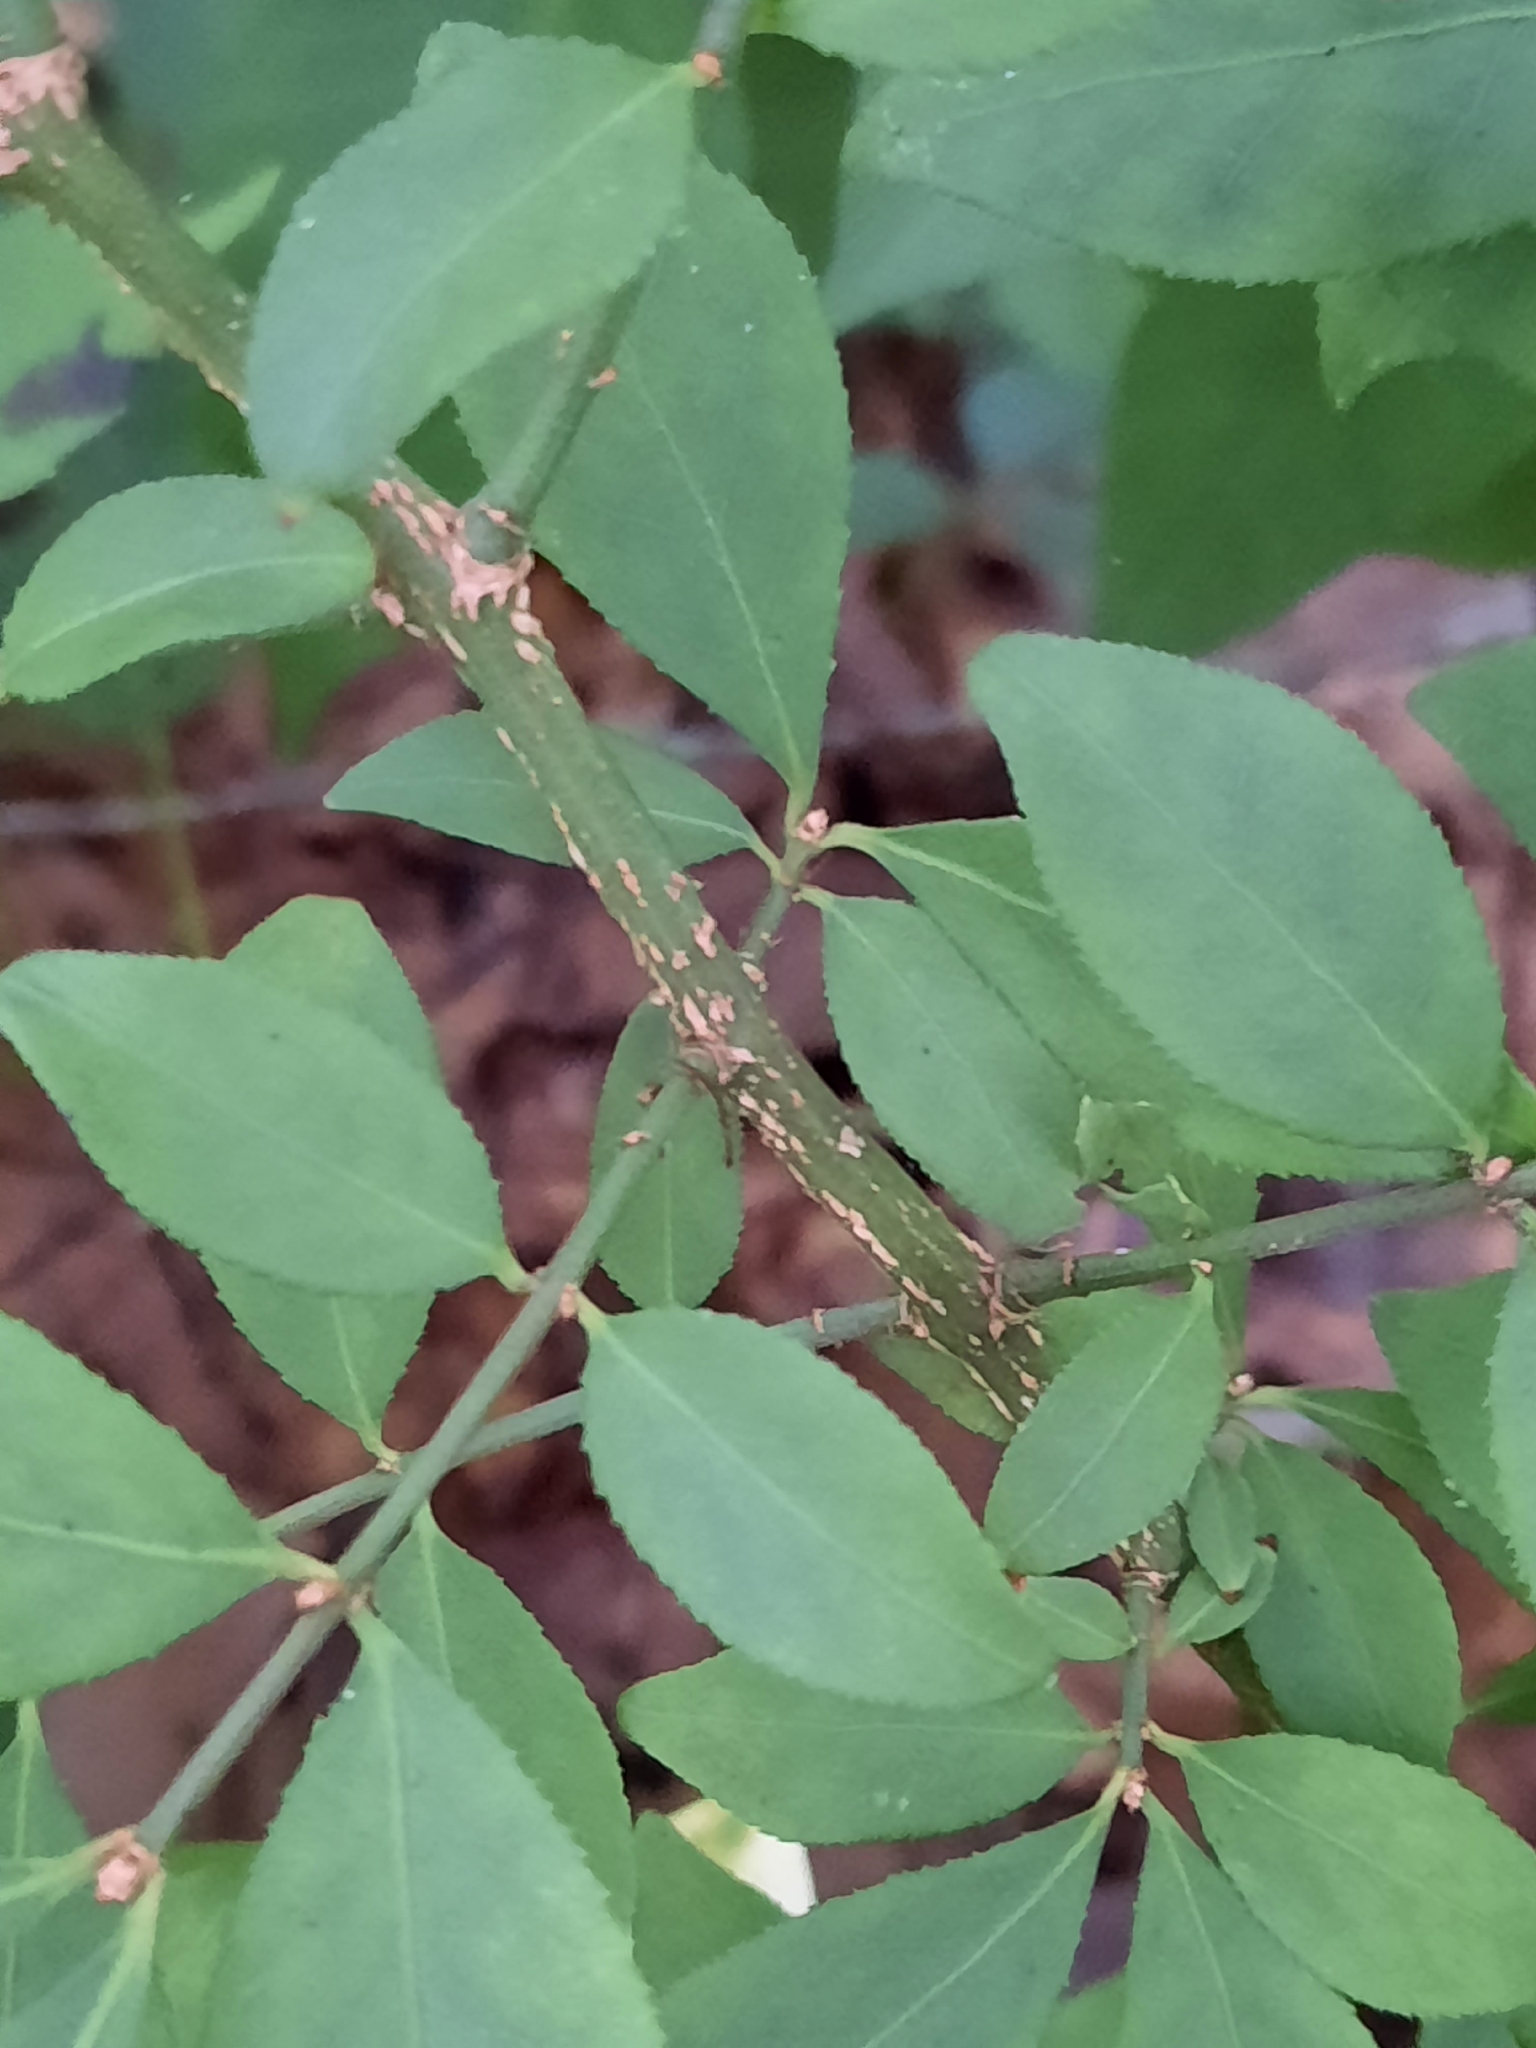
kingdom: Plantae
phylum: Tracheophyta
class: Magnoliopsida
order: Celastrales
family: Celastraceae
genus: Euonymus
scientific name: Euonymus alatus
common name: Winged euonymus
